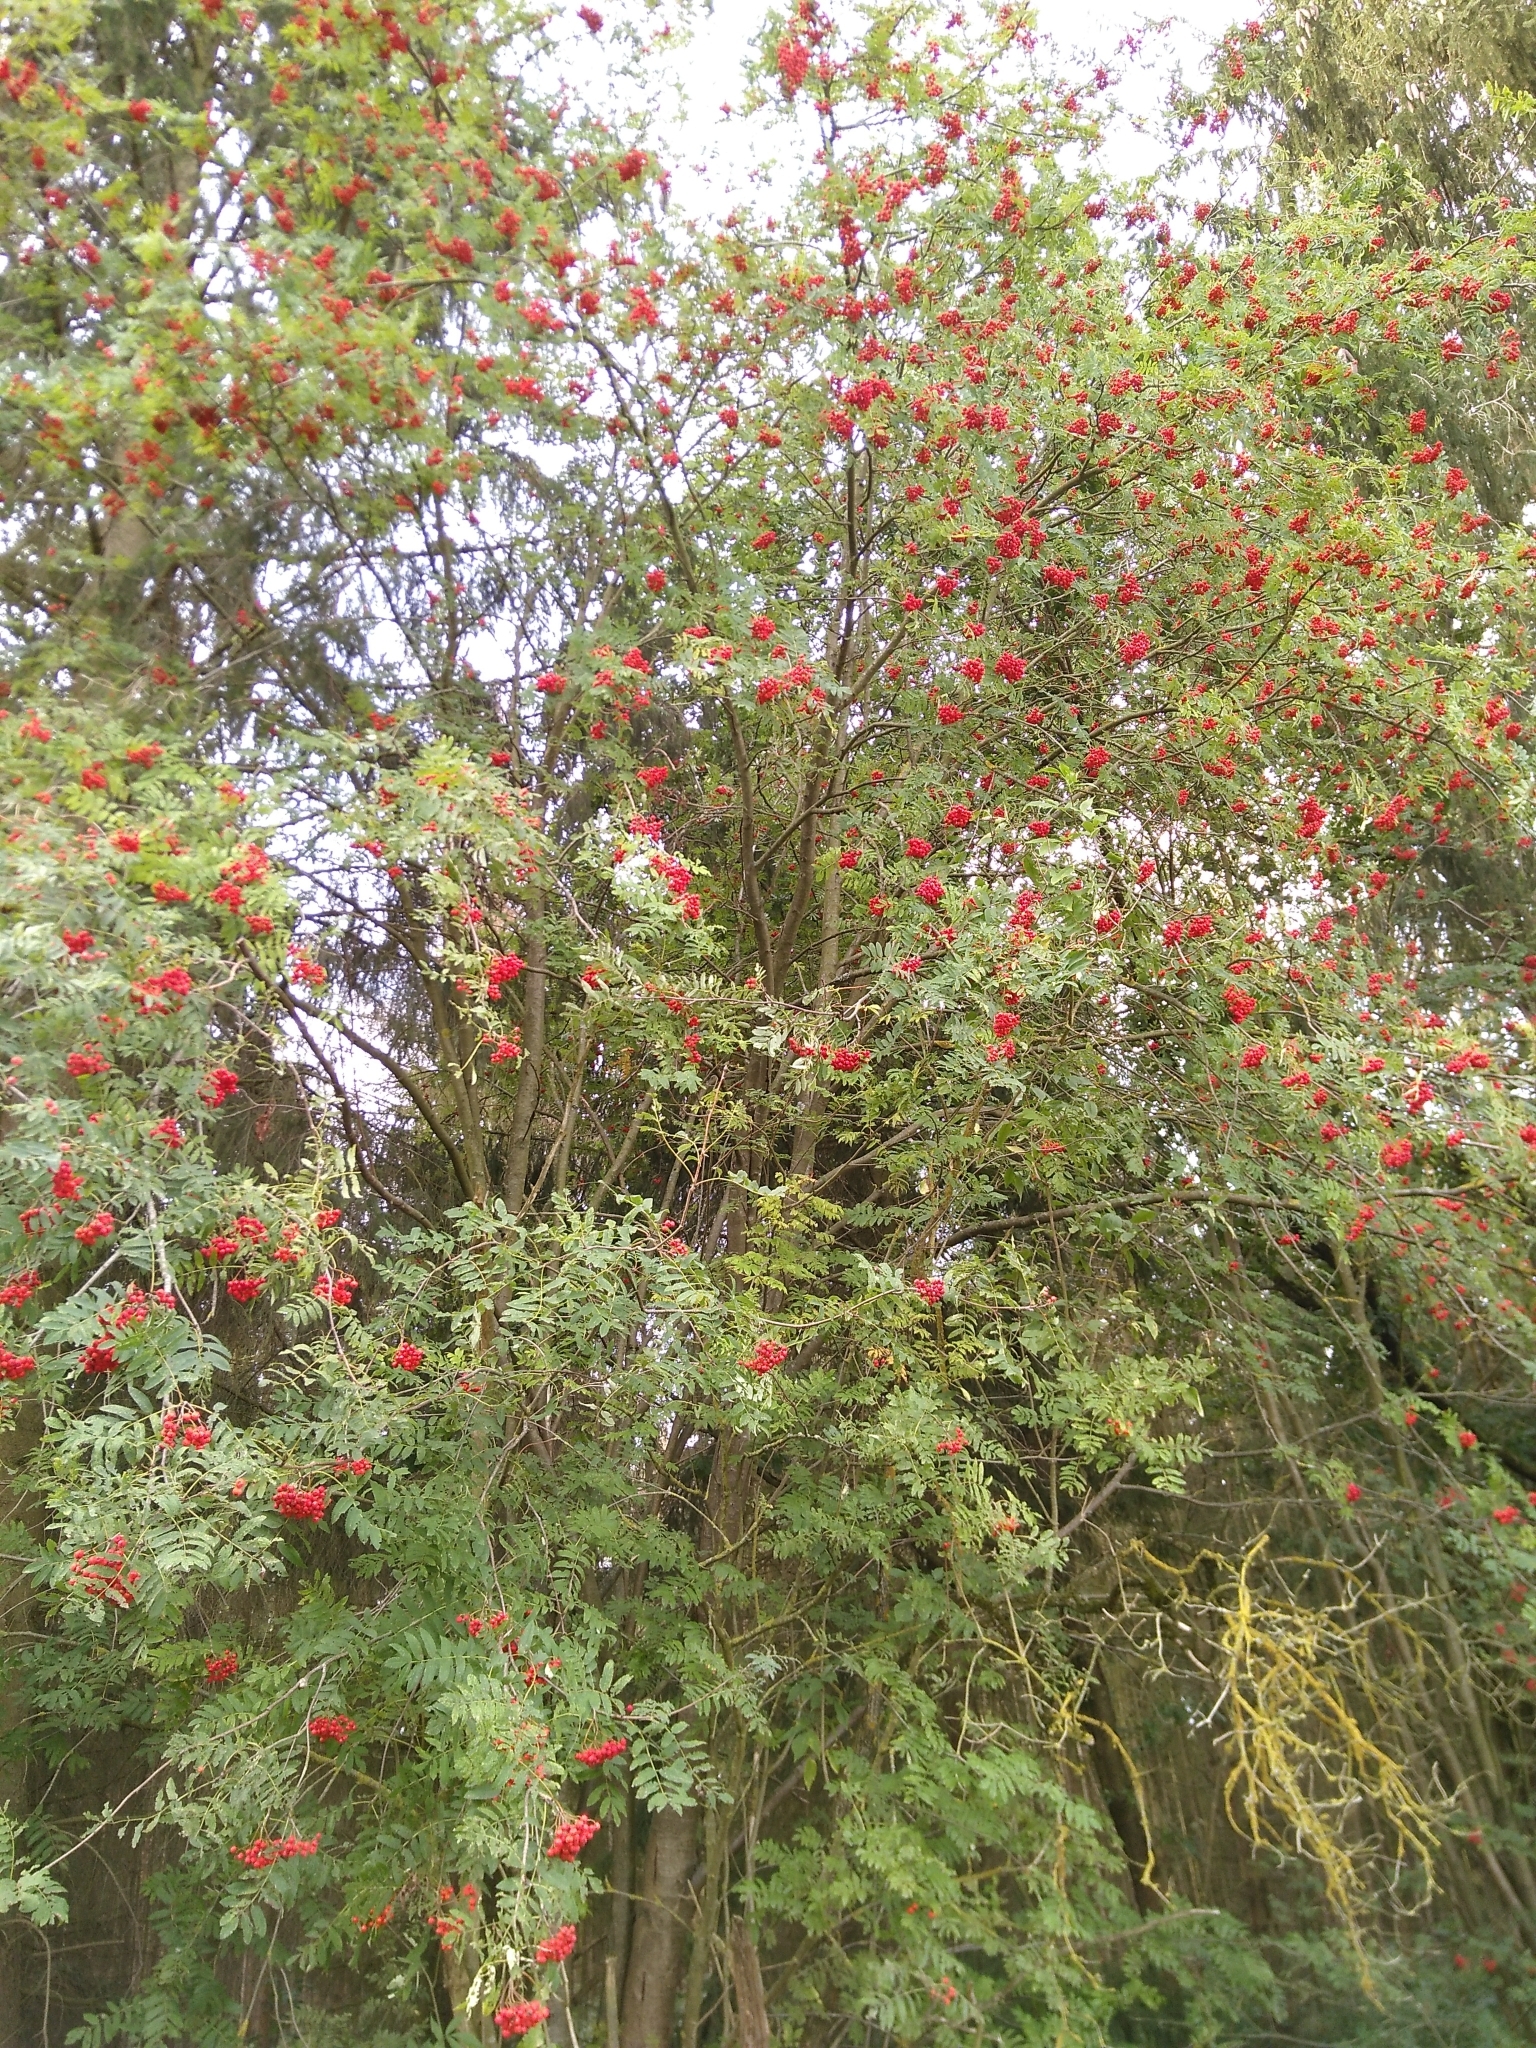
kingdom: Plantae
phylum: Tracheophyta
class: Magnoliopsida
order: Rosales
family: Rosaceae
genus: Sorbus
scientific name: Sorbus aucuparia
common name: Rowan
